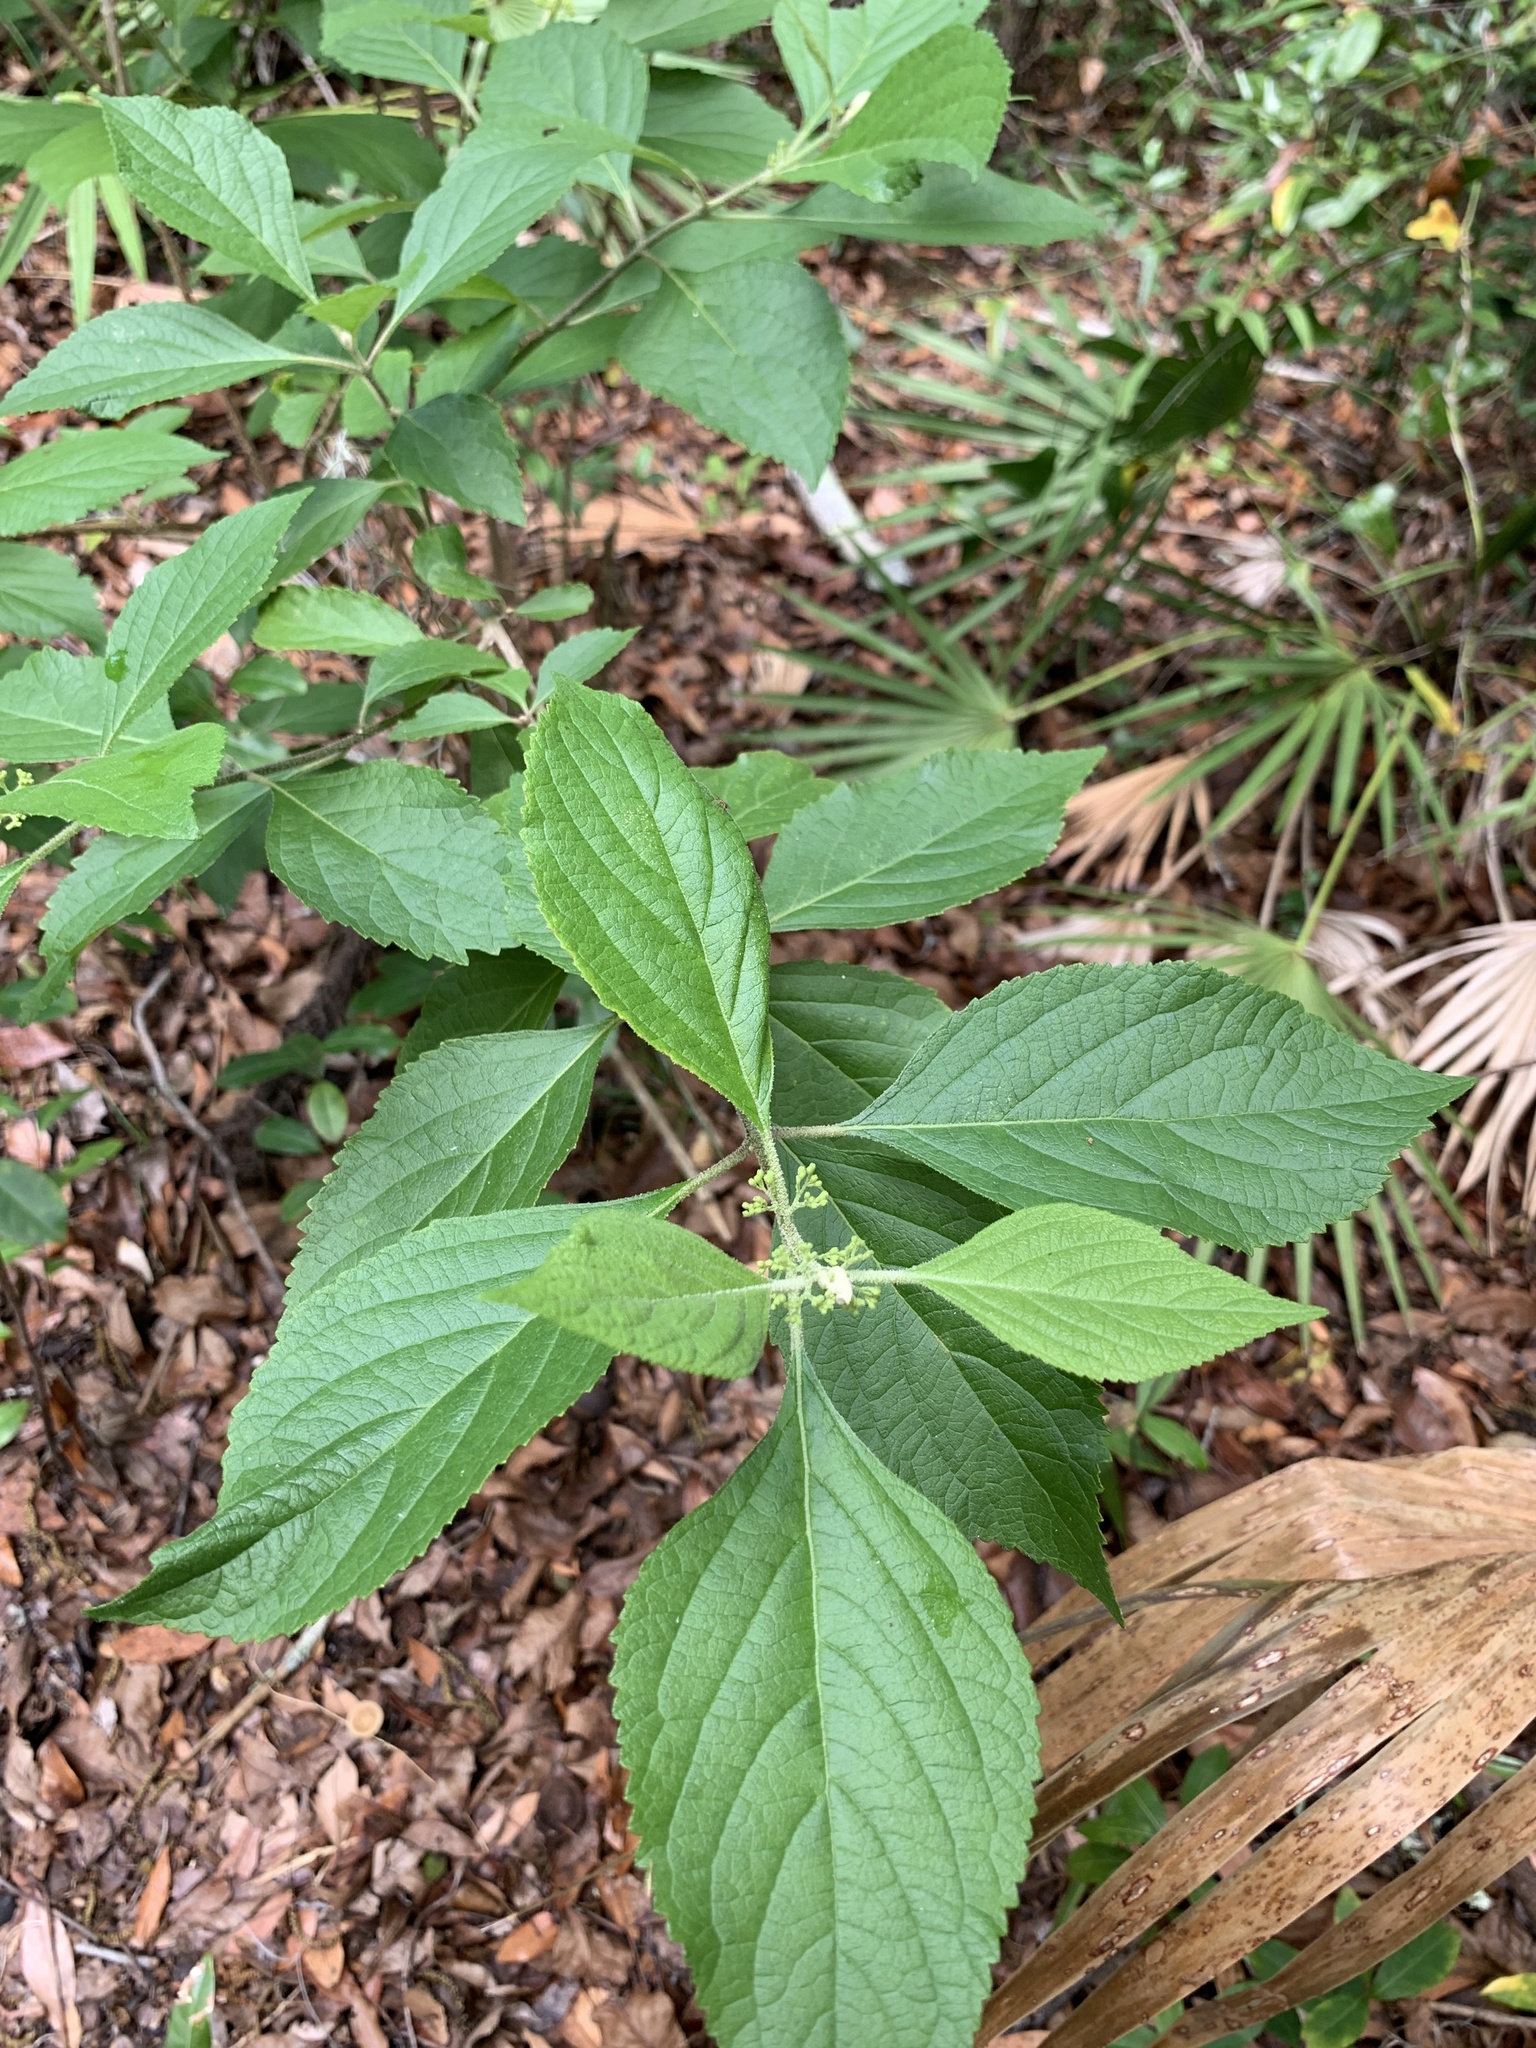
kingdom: Plantae
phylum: Tracheophyta
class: Magnoliopsida
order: Lamiales
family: Lamiaceae
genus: Callicarpa
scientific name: Callicarpa americana
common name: American beautyberry
